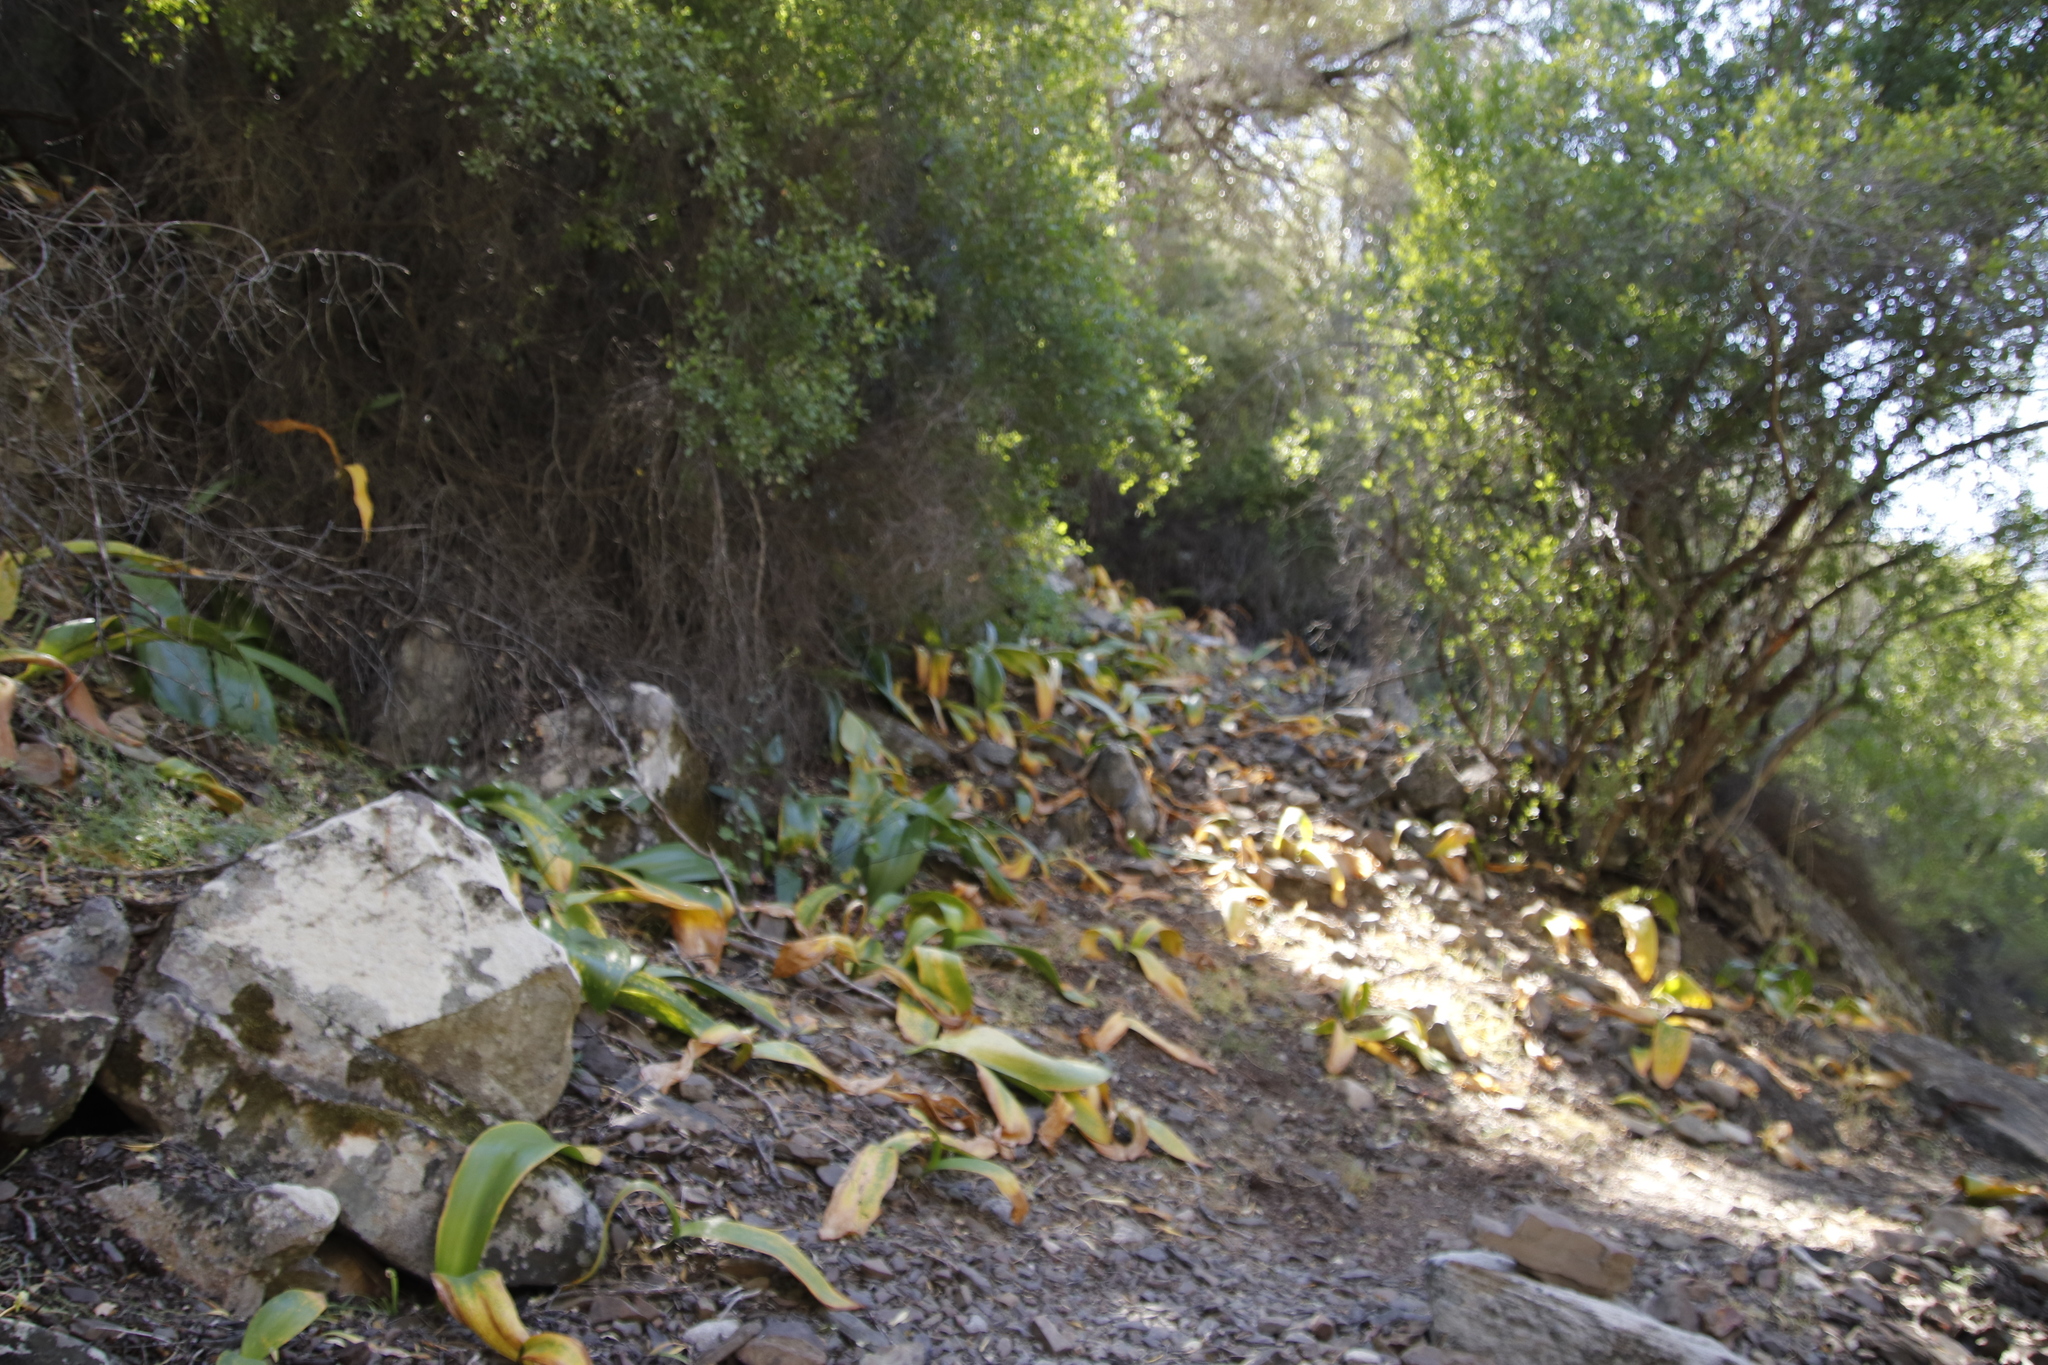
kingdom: Plantae
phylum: Tracheophyta
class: Liliopsida
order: Asparagales
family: Amaryllidaceae
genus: Haemanthus
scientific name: Haemanthus coccineus
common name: Cape-tulip
